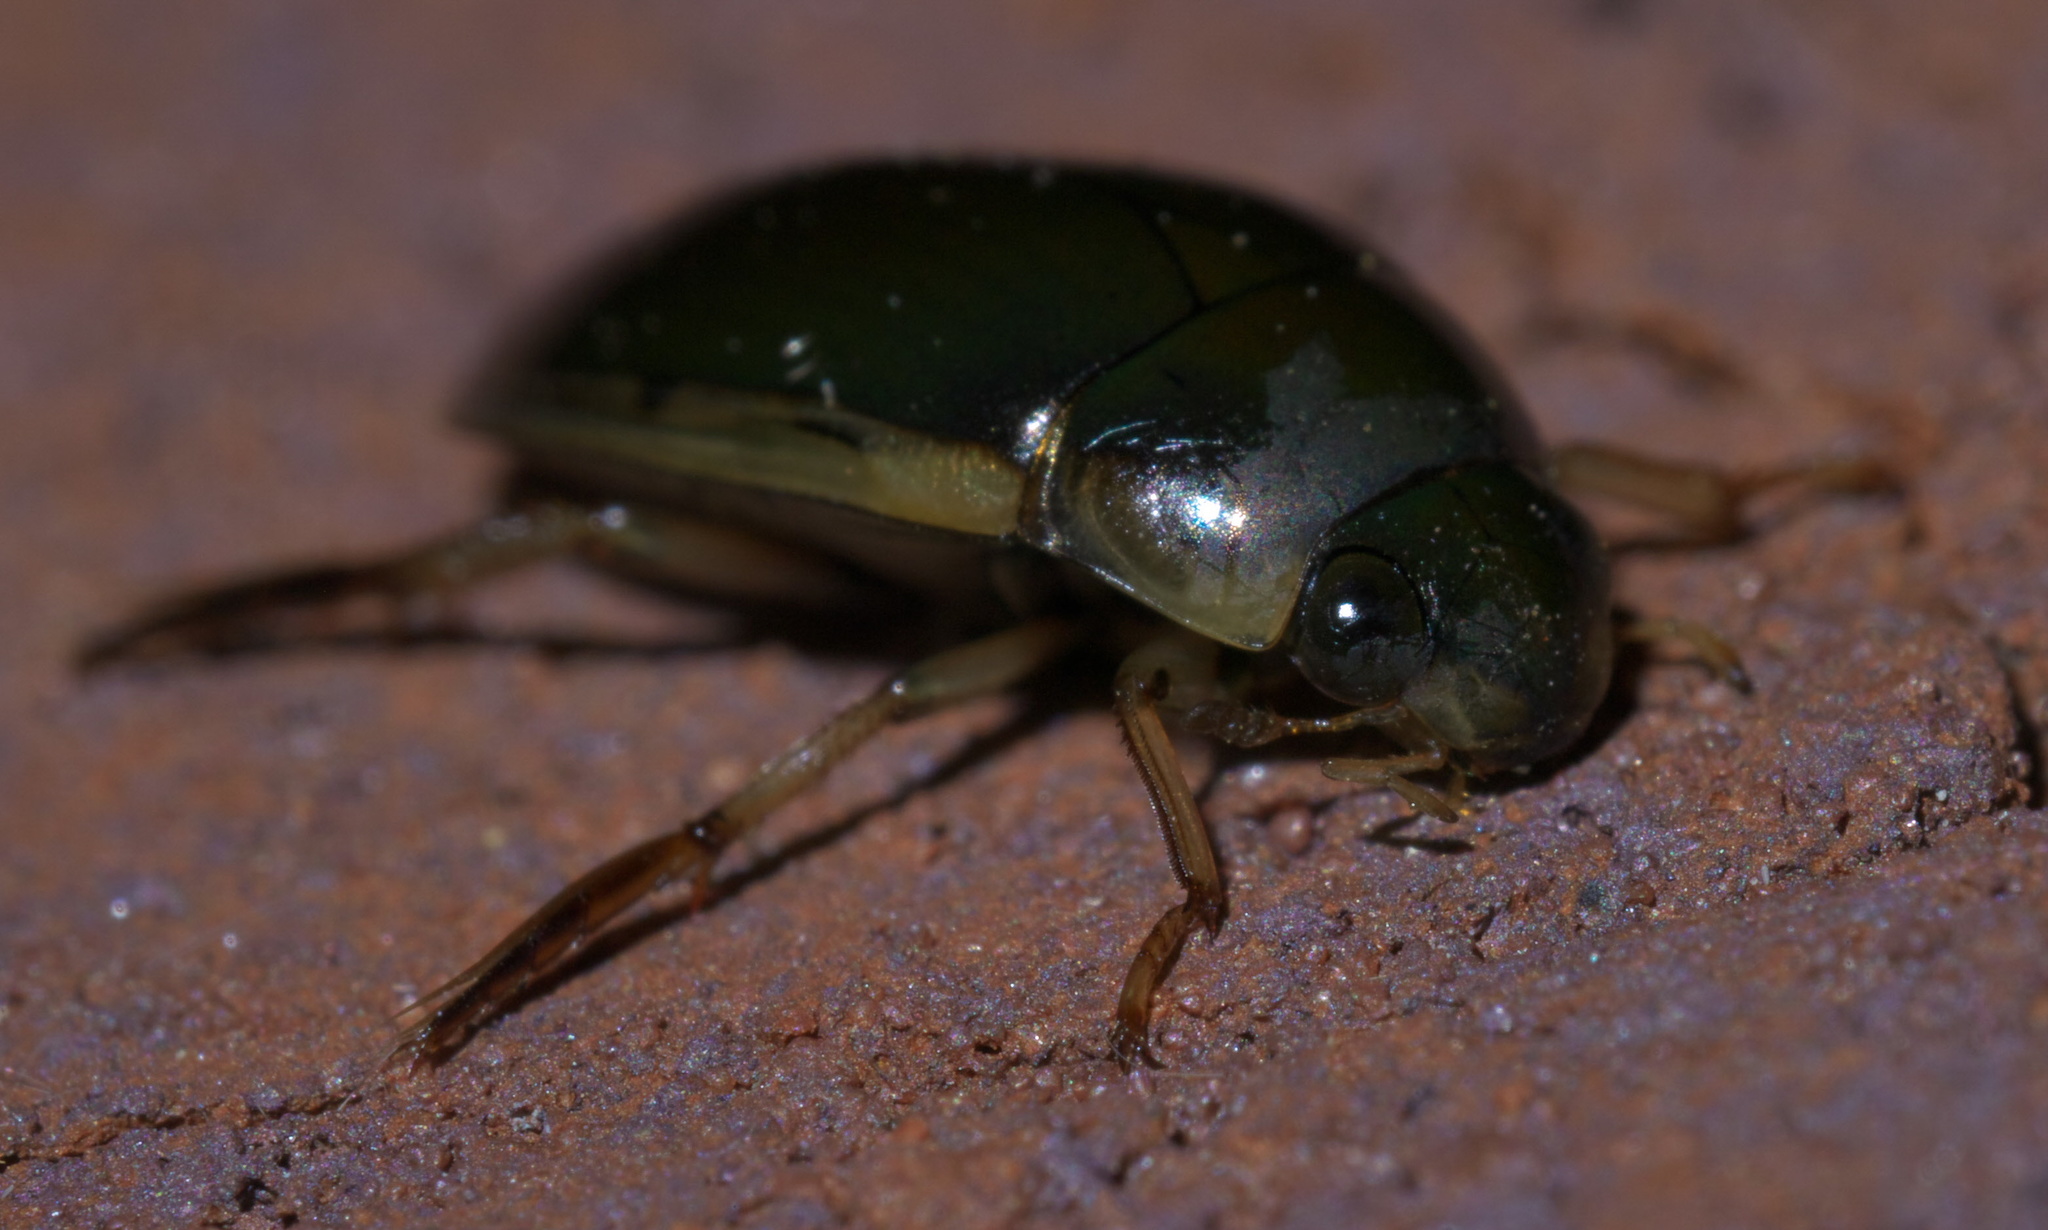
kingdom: Animalia
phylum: Arthropoda
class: Insecta
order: Coleoptera
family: Hydrophilidae
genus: Tropisternus
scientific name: Tropisternus lateralis
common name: Lateral-banded water scavenger beetle
